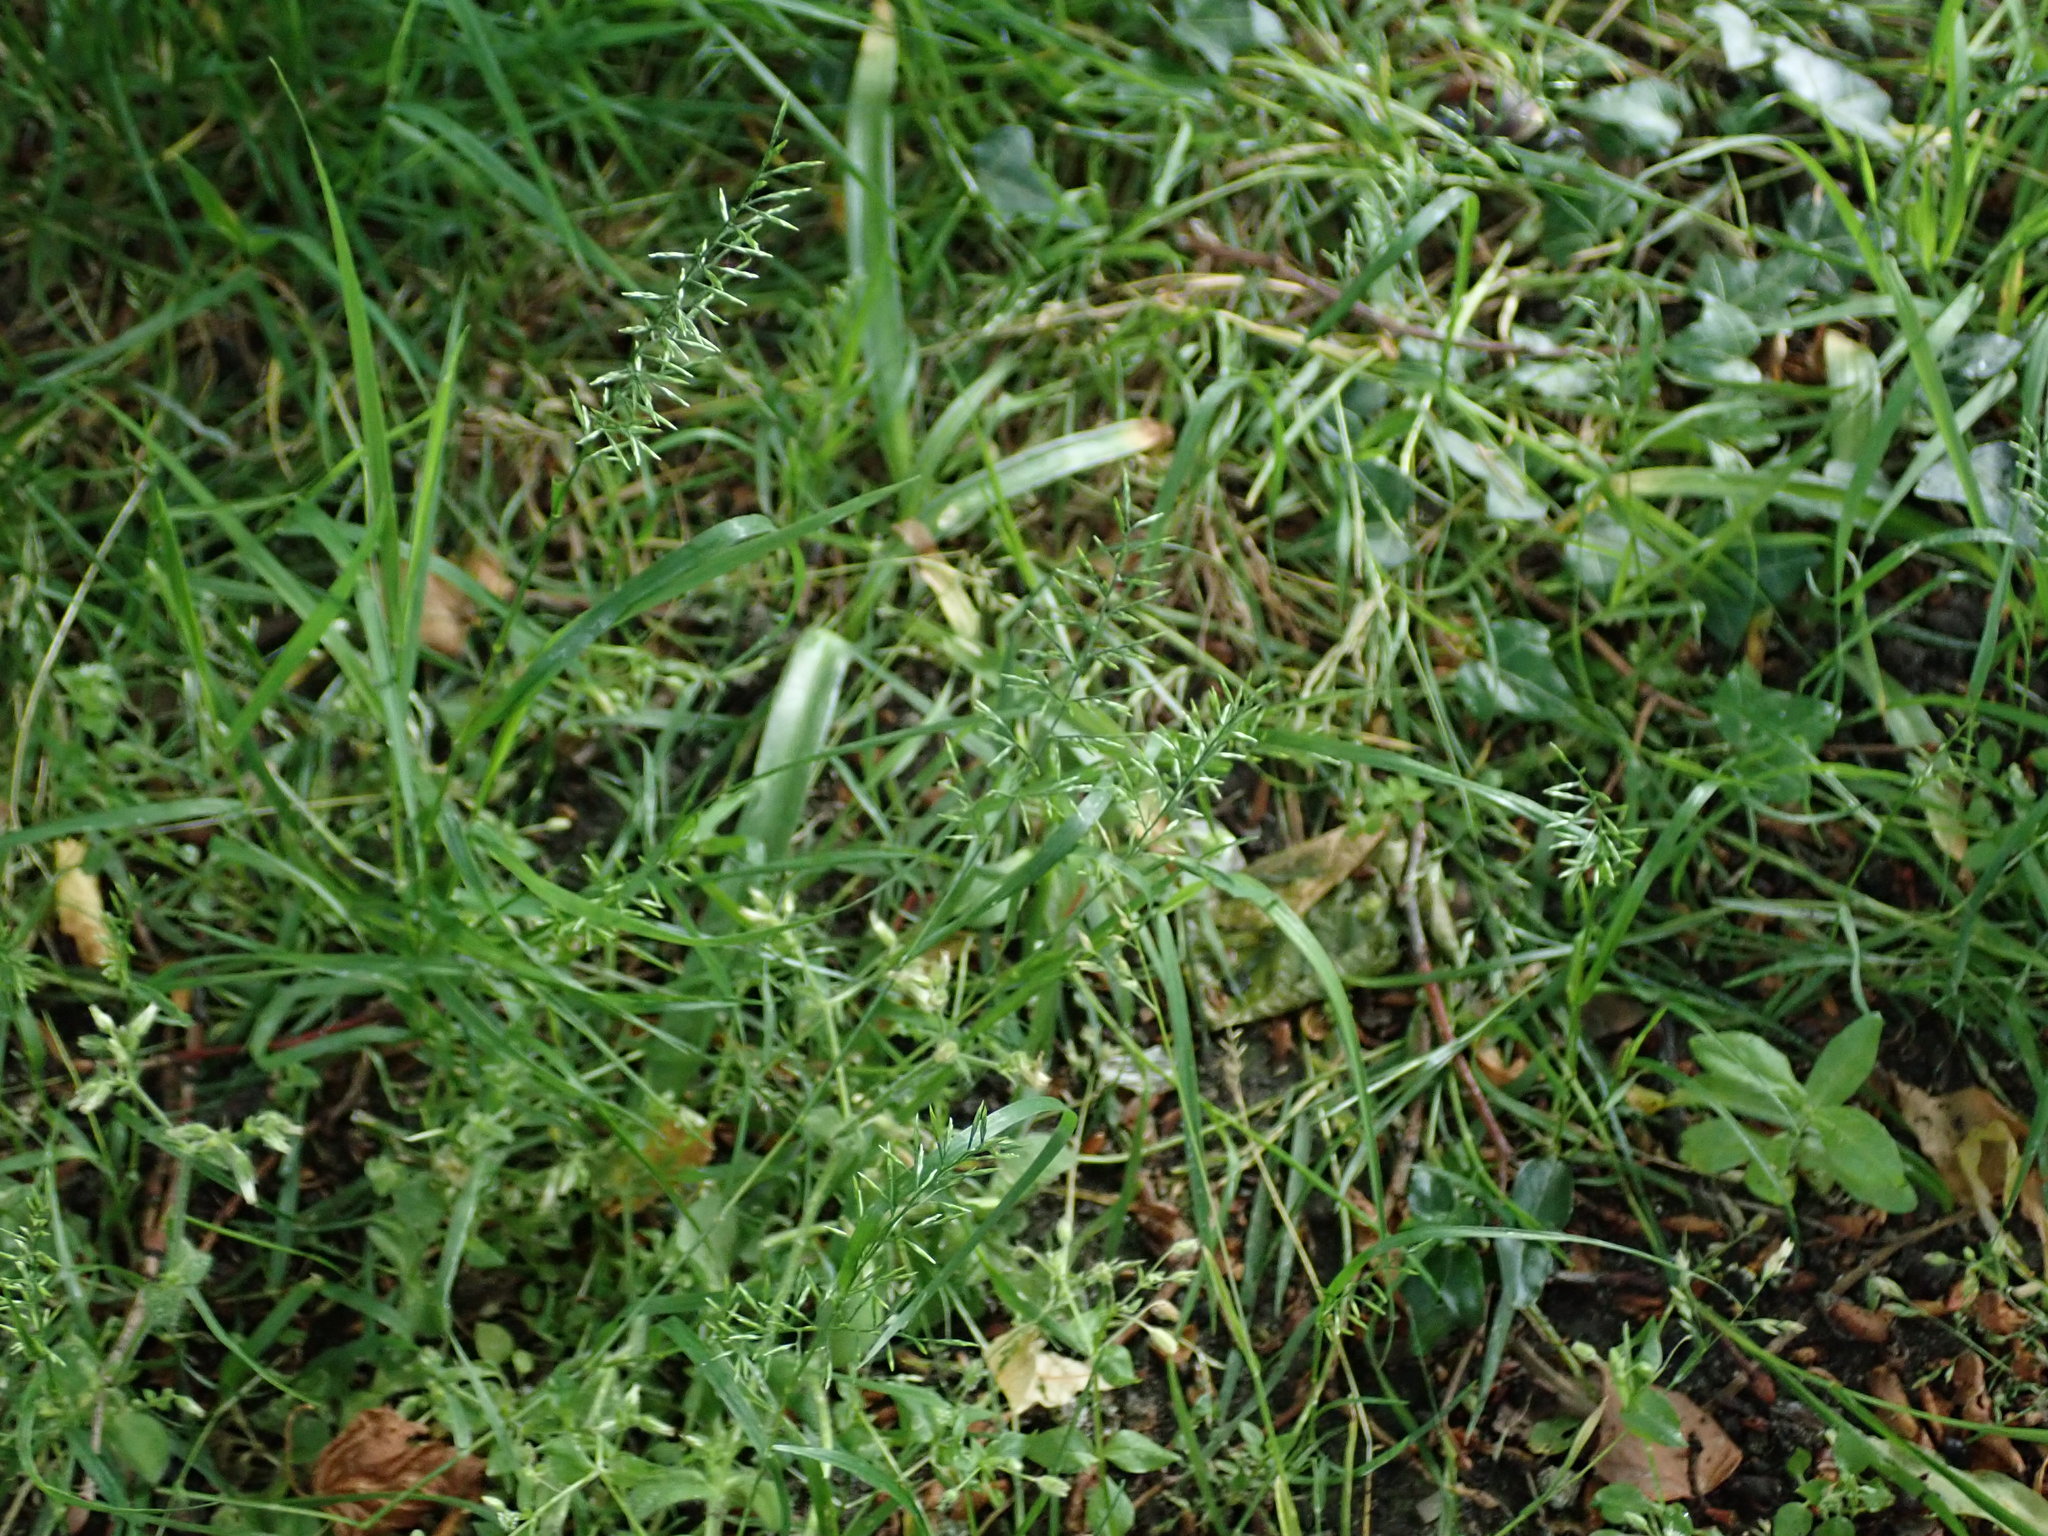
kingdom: Plantae
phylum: Tracheophyta
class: Liliopsida
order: Poales
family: Poaceae
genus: Catapodium
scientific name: Catapodium rigidum
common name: Fern-grass
